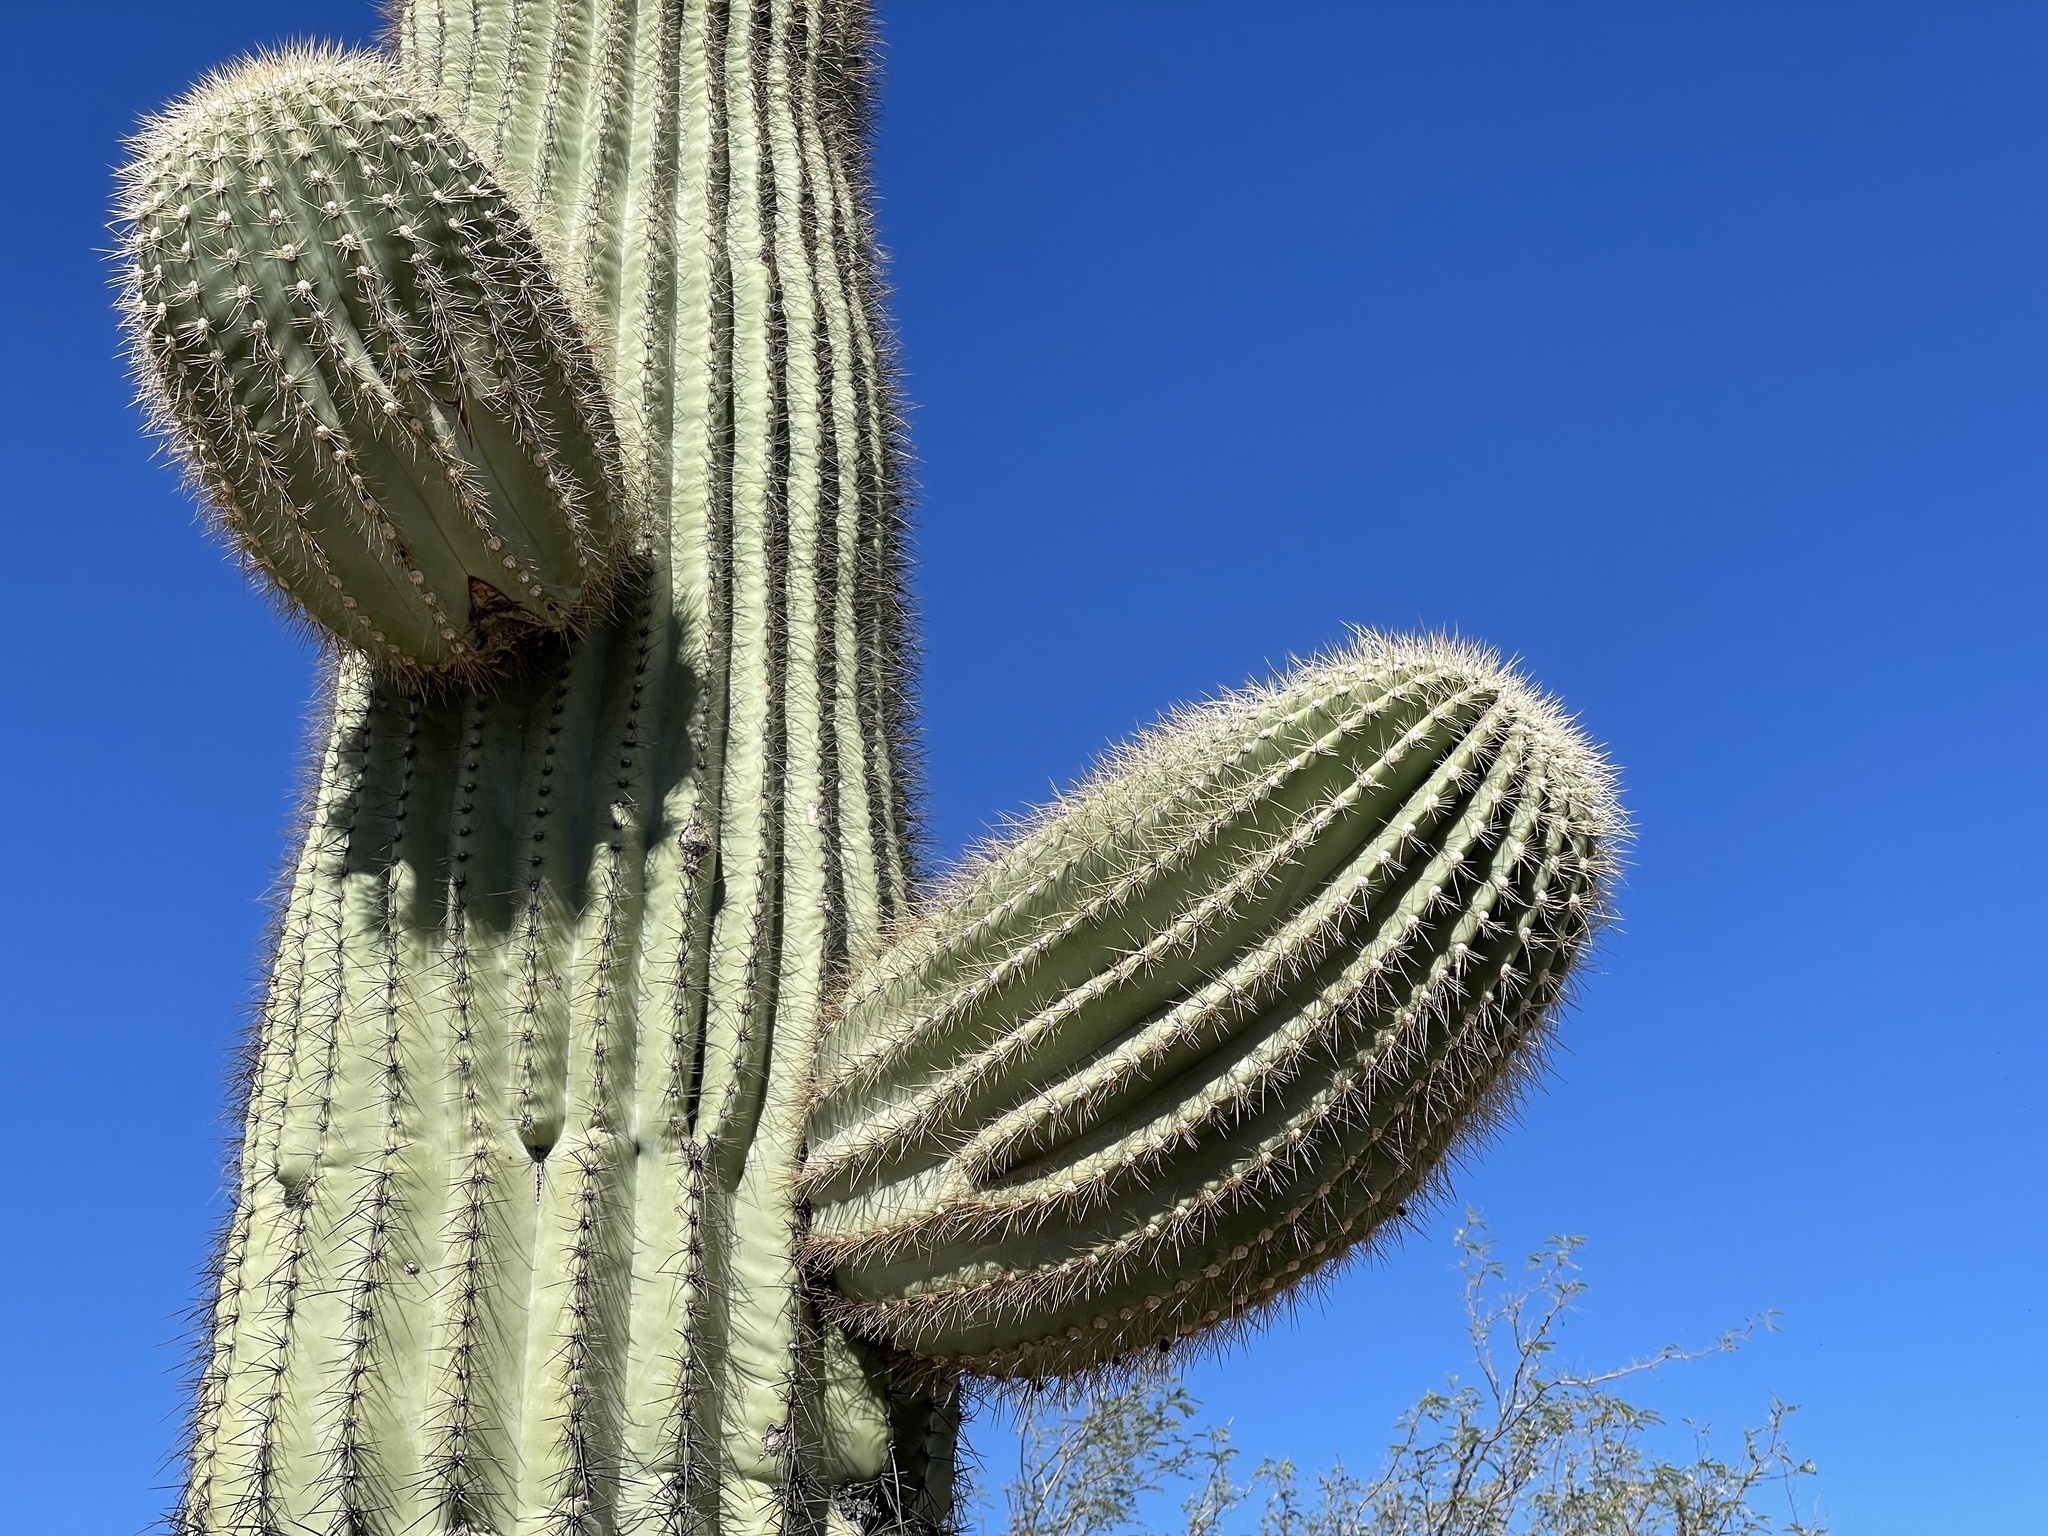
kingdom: Plantae
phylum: Tracheophyta
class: Magnoliopsida
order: Caryophyllales
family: Cactaceae
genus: Carnegiea
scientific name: Carnegiea gigantea
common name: Saguaro
